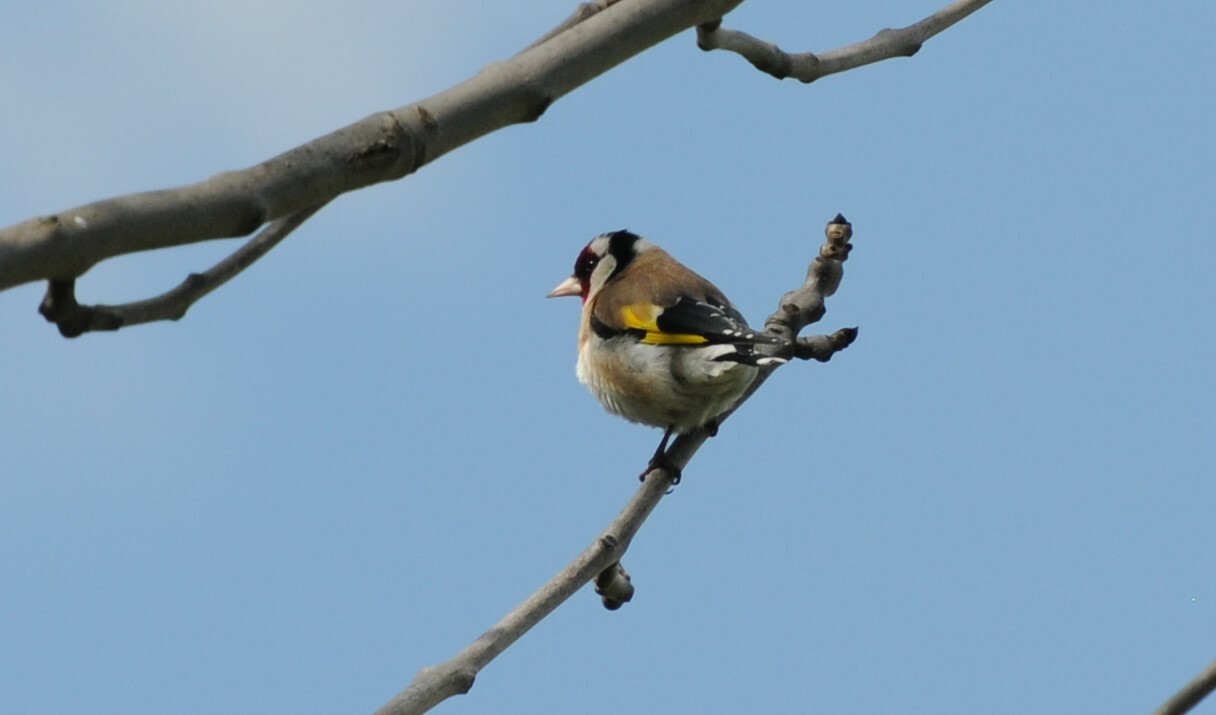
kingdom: Animalia
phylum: Chordata
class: Aves
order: Passeriformes
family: Fringillidae
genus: Carduelis
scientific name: Carduelis carduelis
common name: European goldfinch
